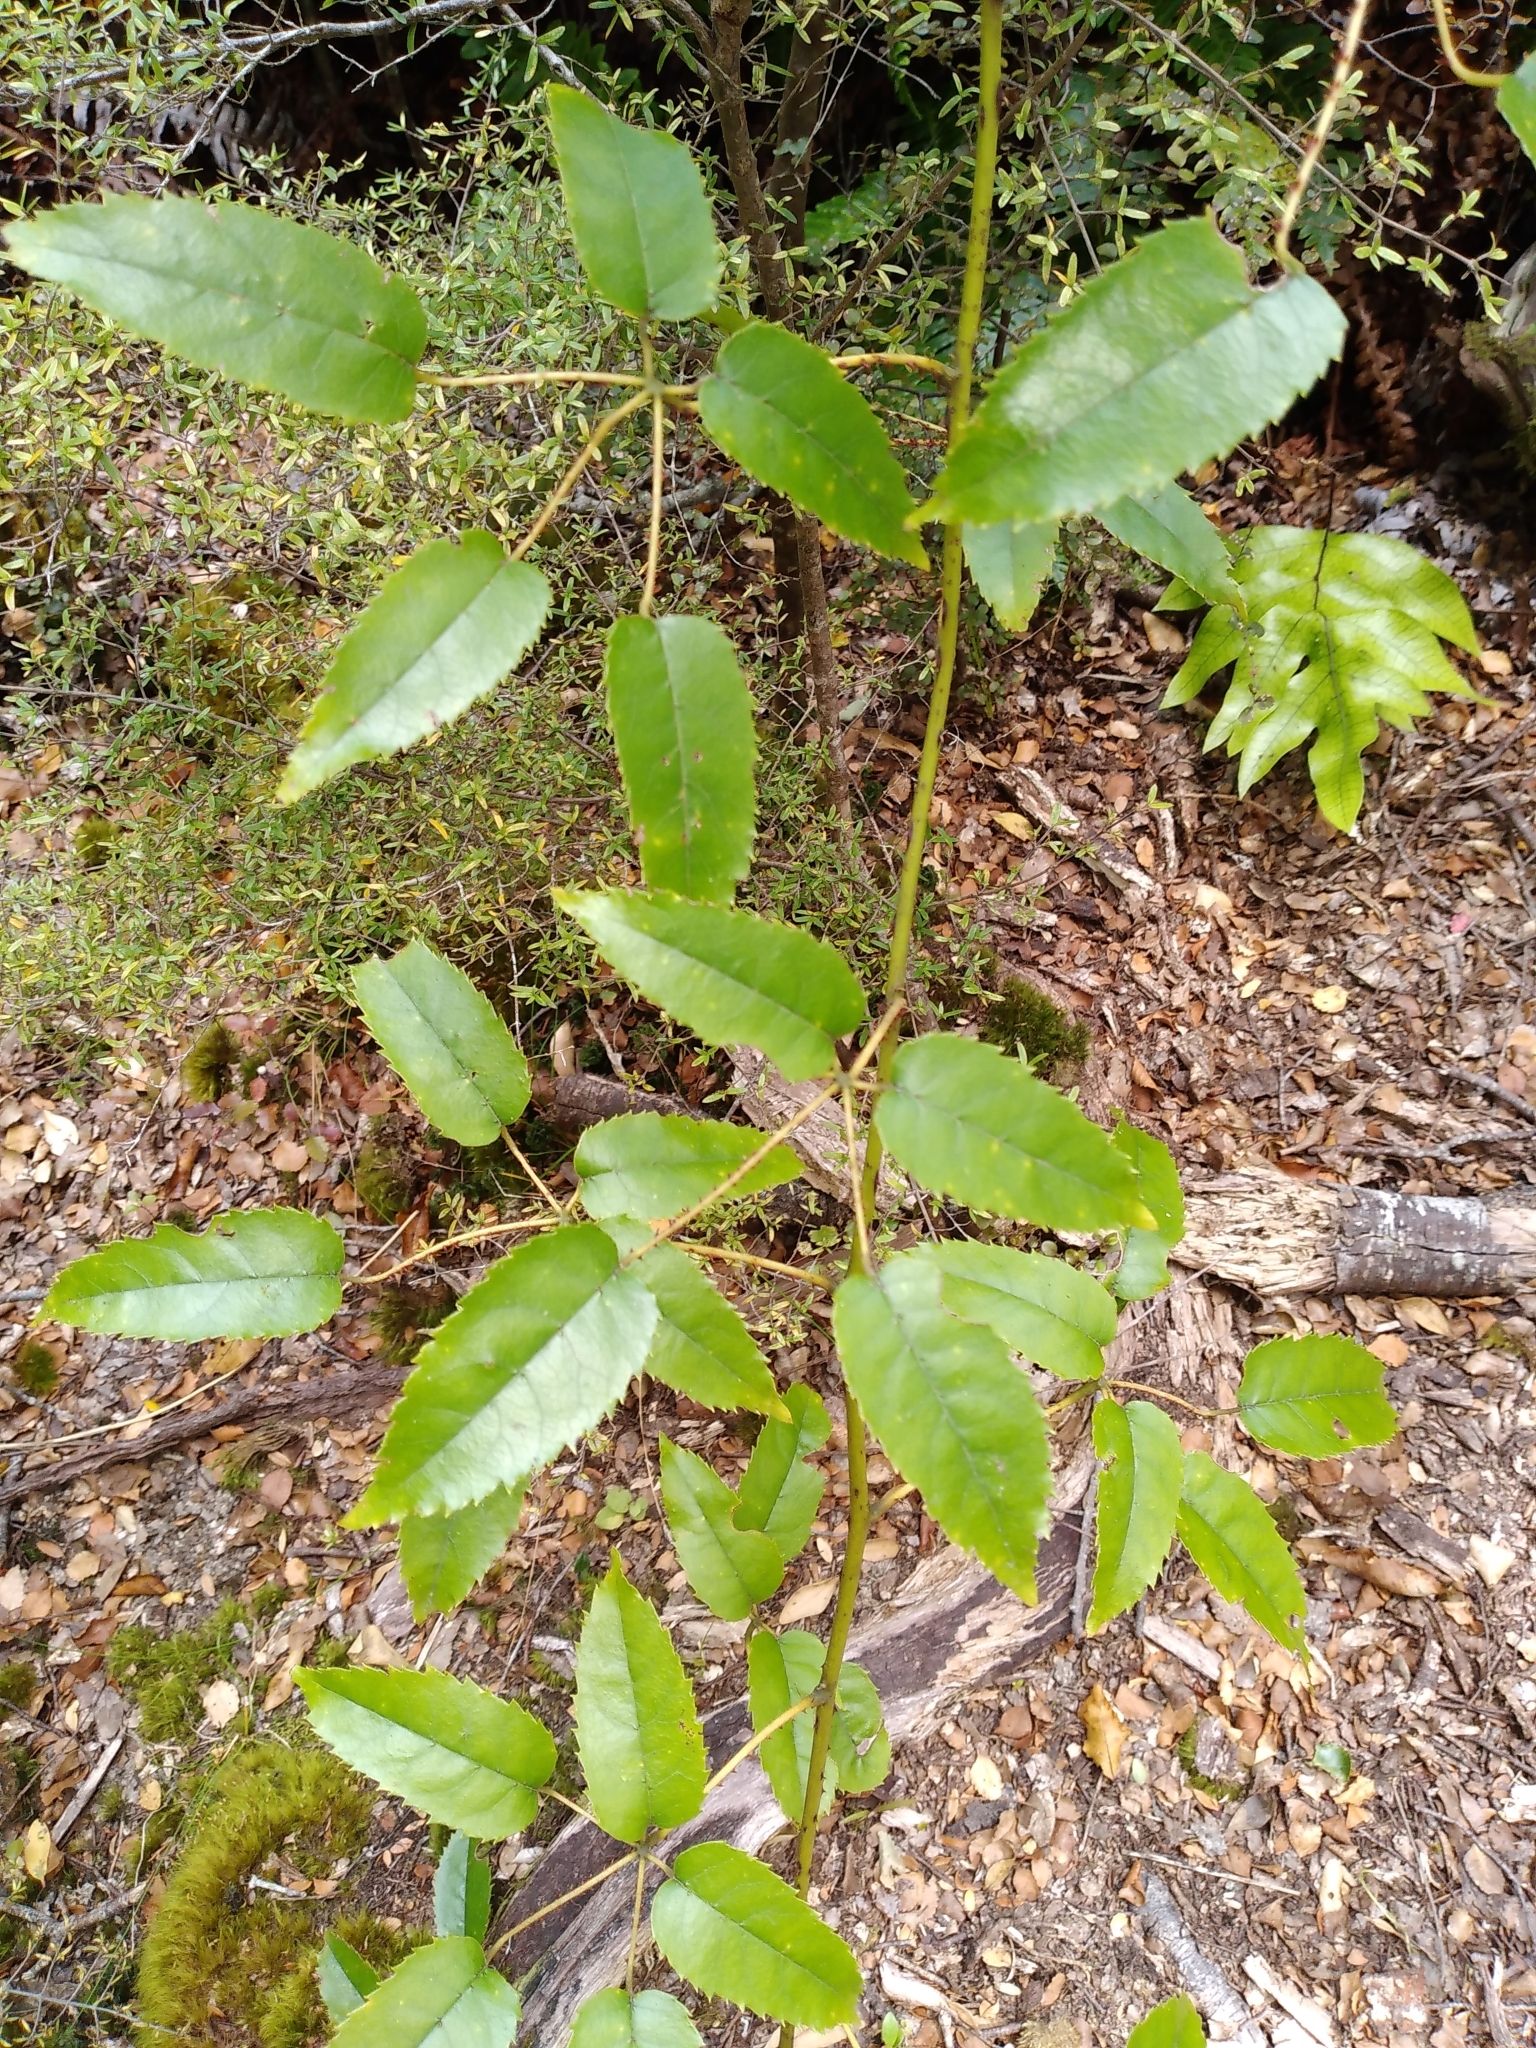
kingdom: Plantae
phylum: Tracheophyta
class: Magnoliopsida
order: Rosales
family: Rosaceae
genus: Rubus
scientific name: Rubus cissoides
